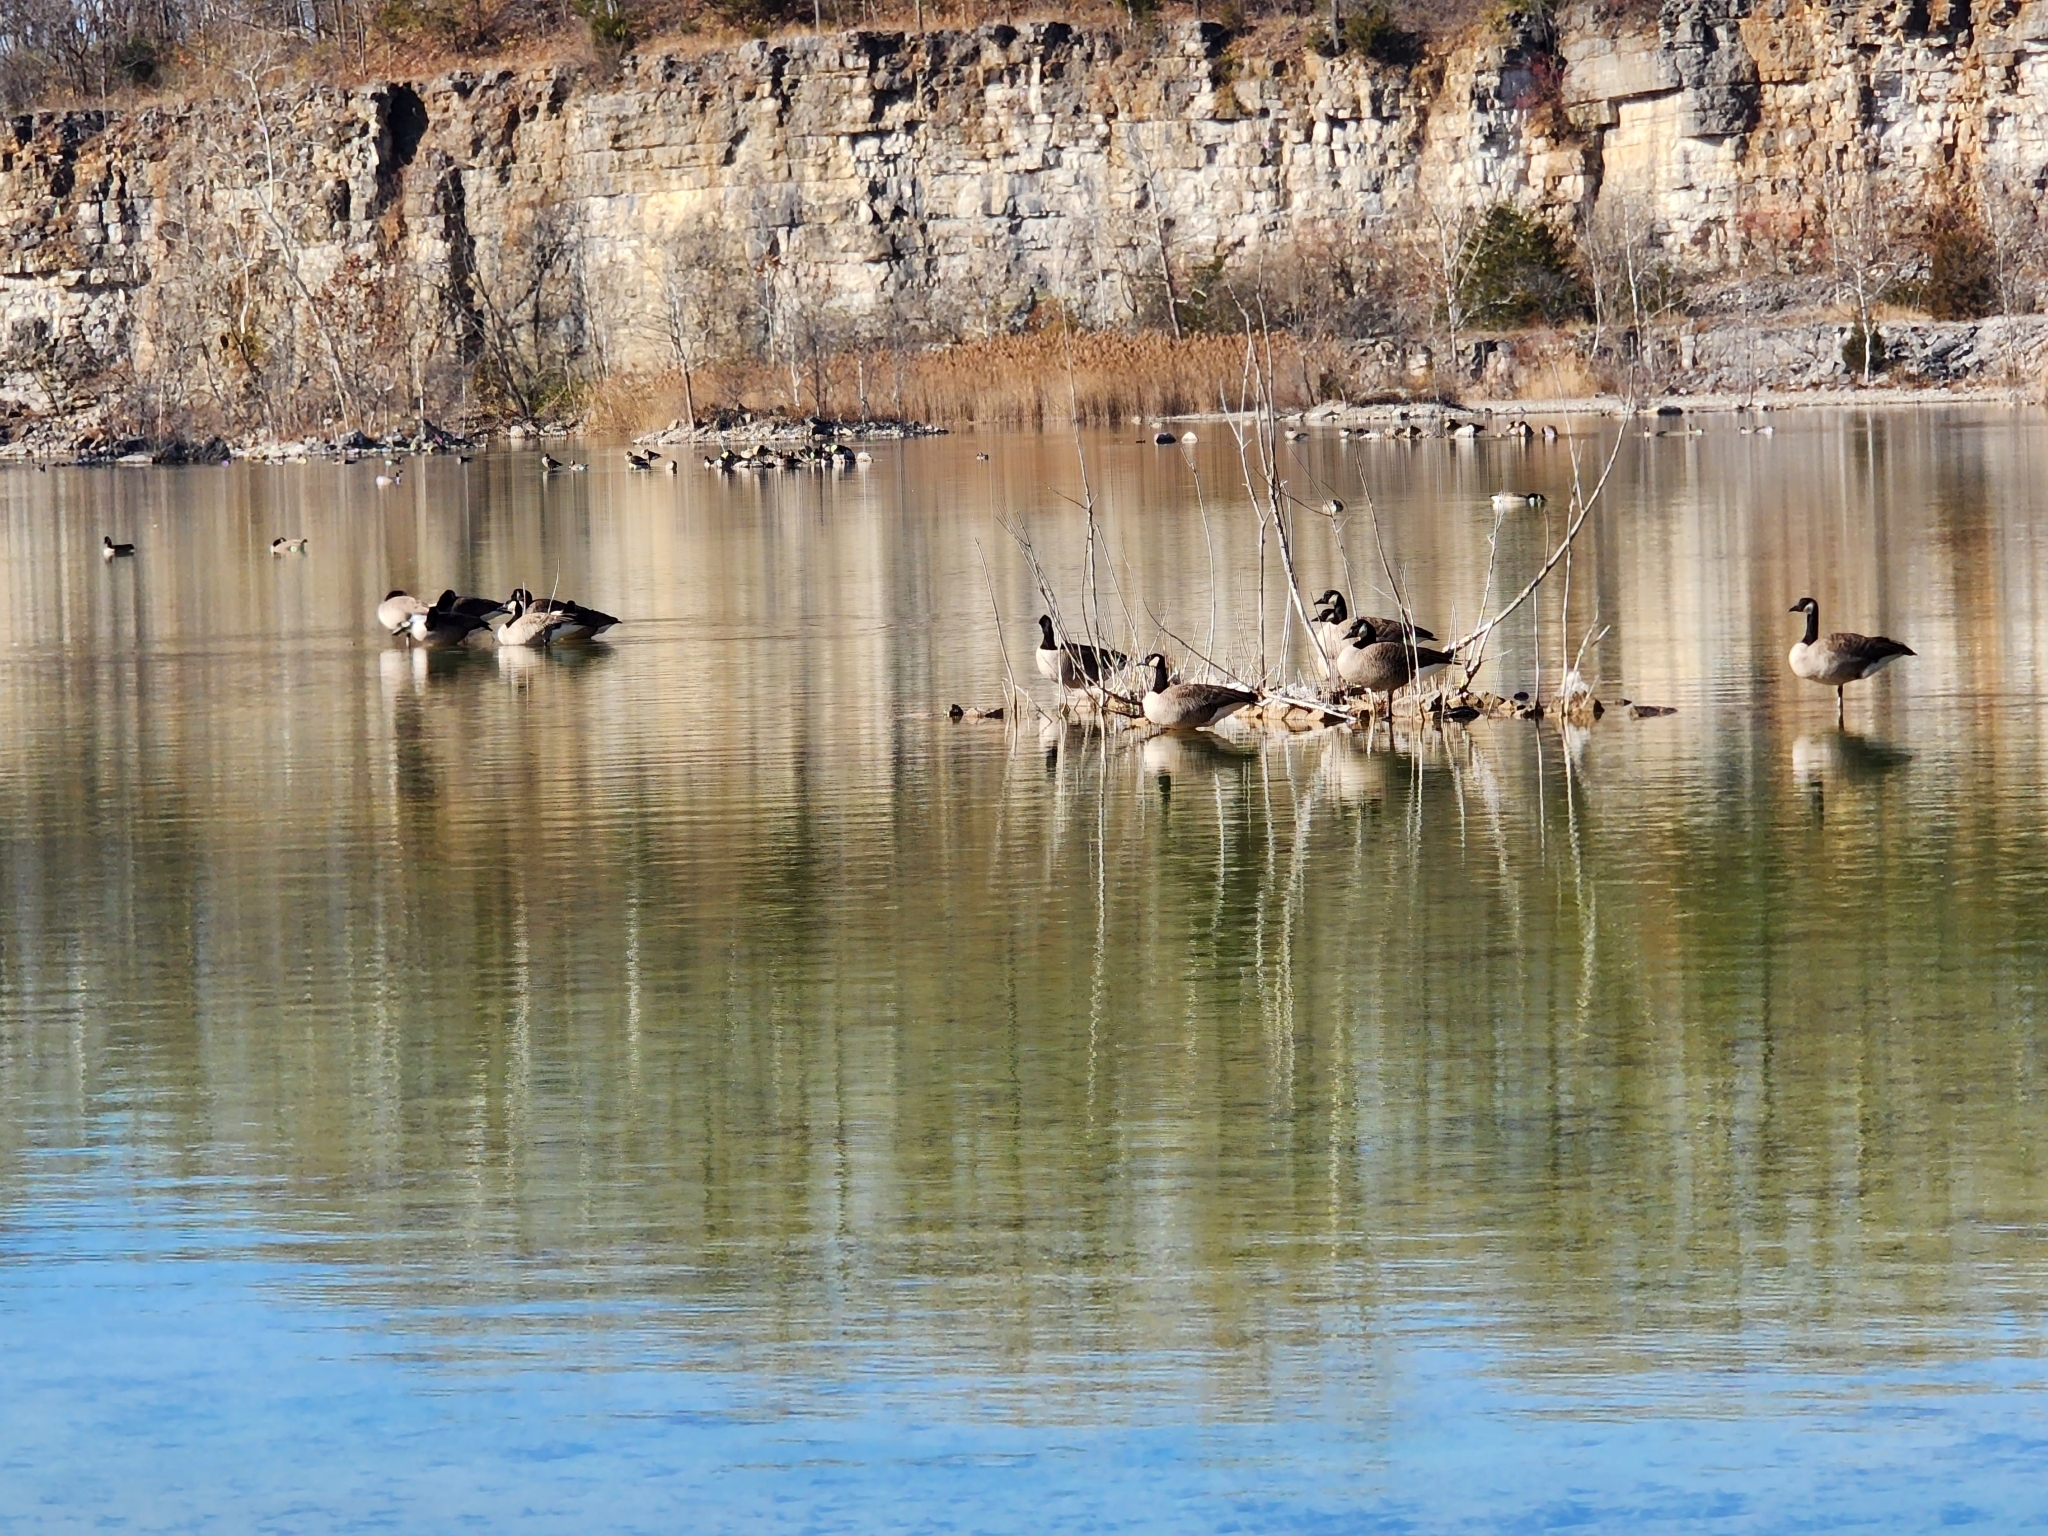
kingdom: Animalia
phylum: Chordata
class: Aves
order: Anseriformes
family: Anatidae
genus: Branta
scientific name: Branta canadensis
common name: Canada goose
